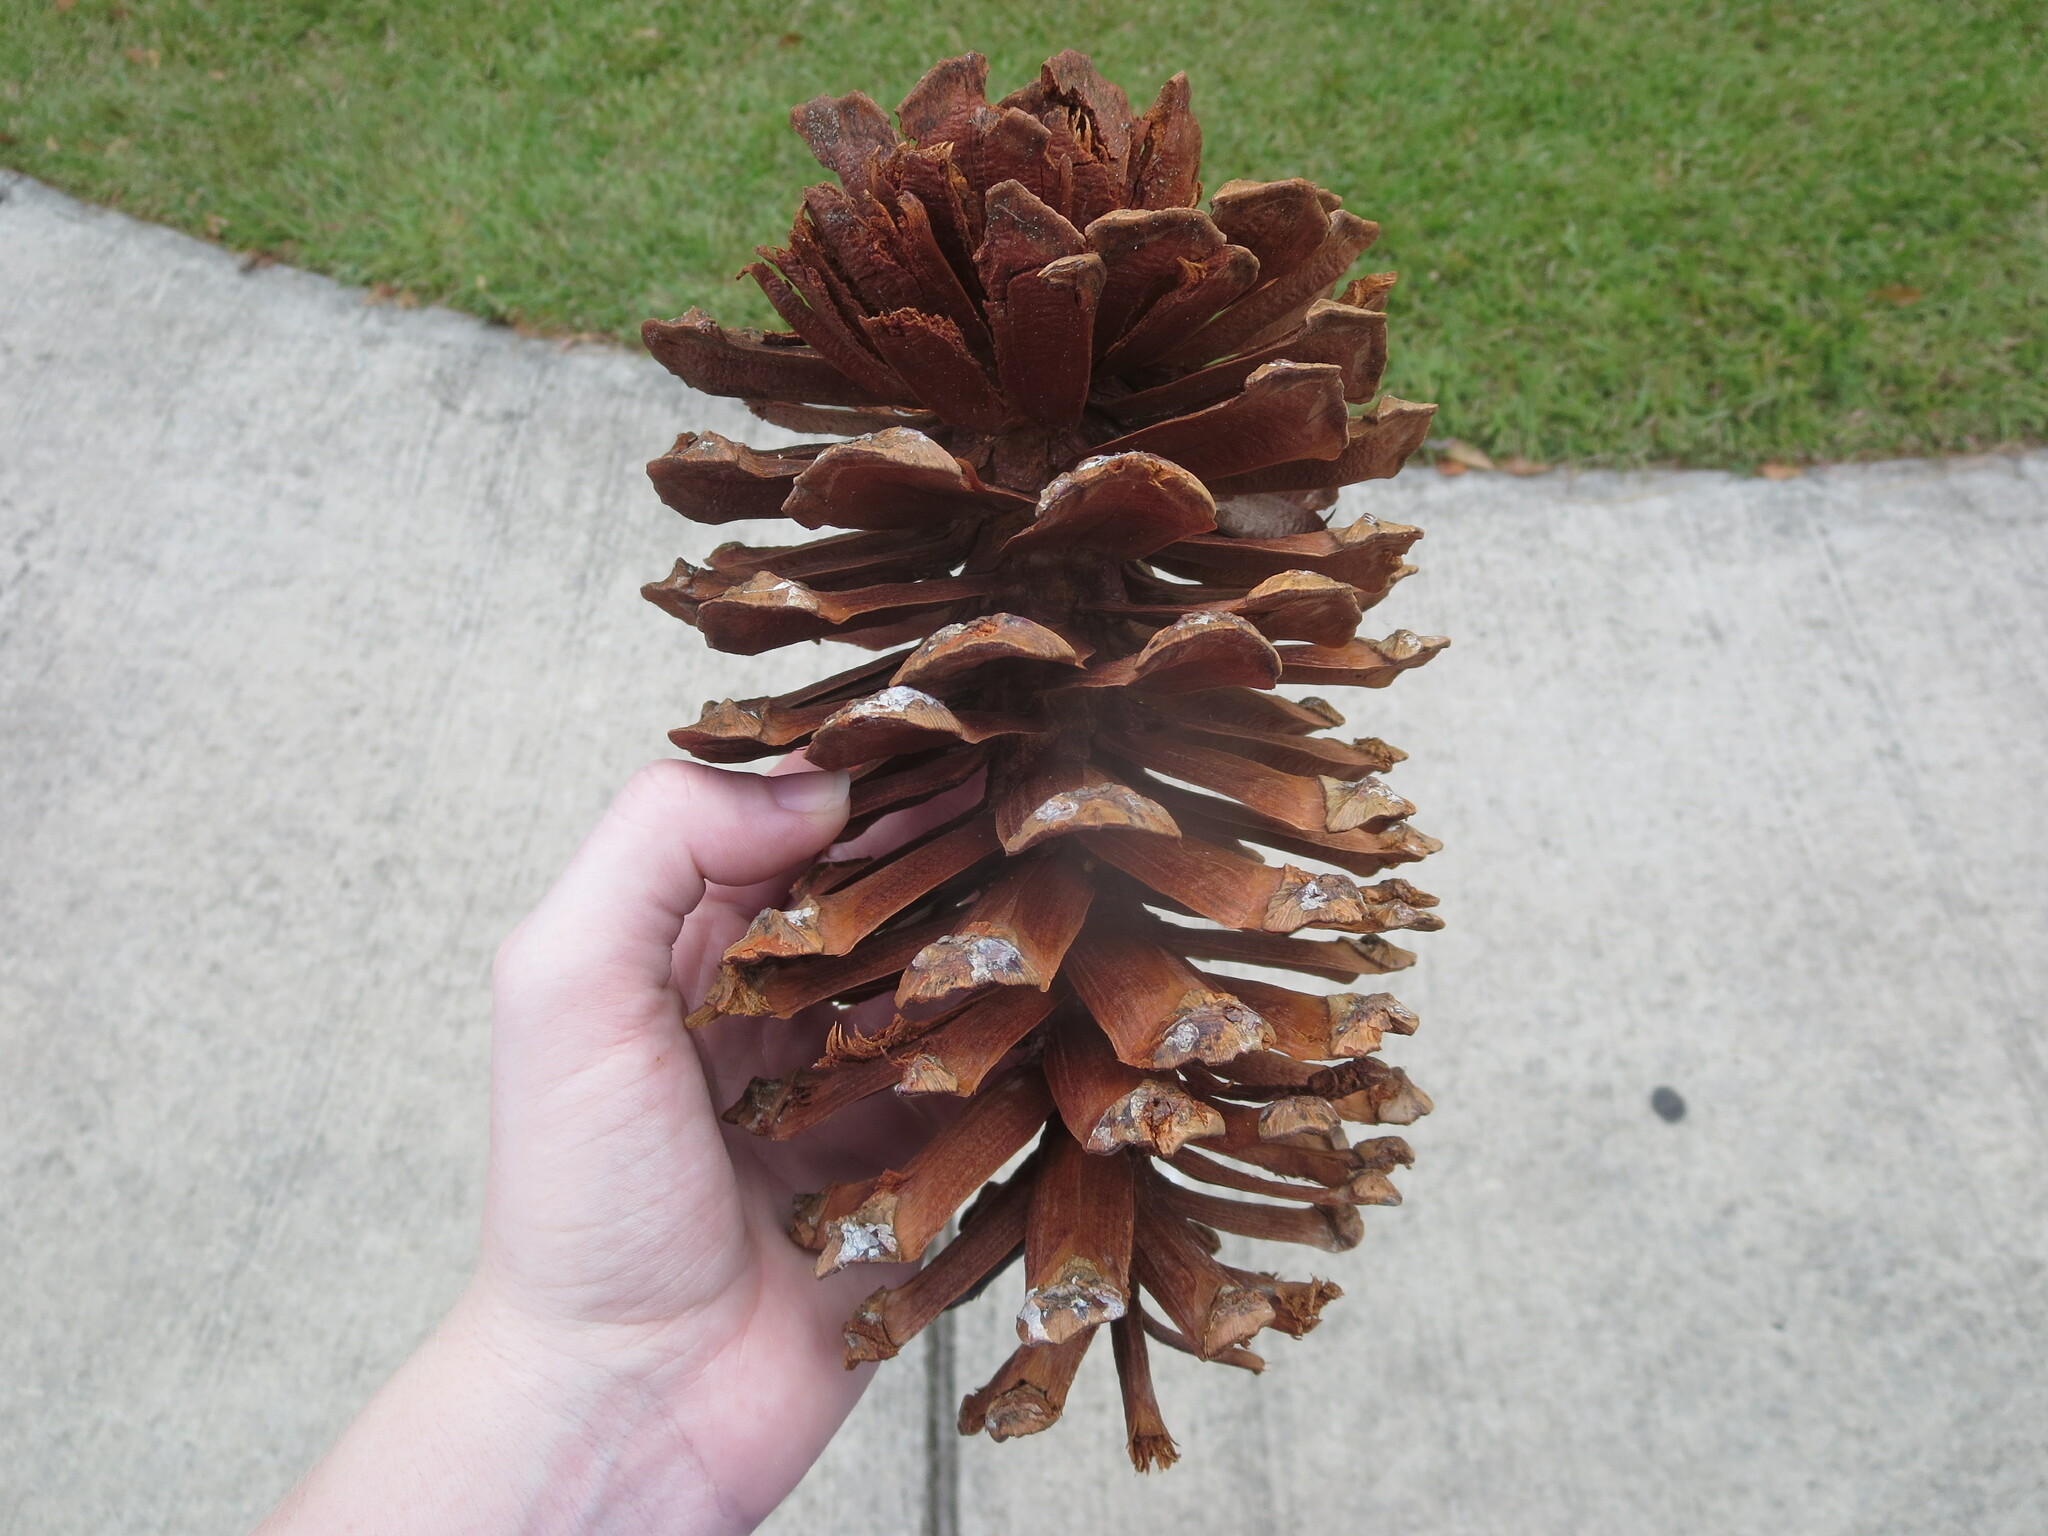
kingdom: Plantae
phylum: Tracheophyta
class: Pinopsida
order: Pinales
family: Pinaceae
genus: Pinus
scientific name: Pinus palustris
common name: Longleaf pine
